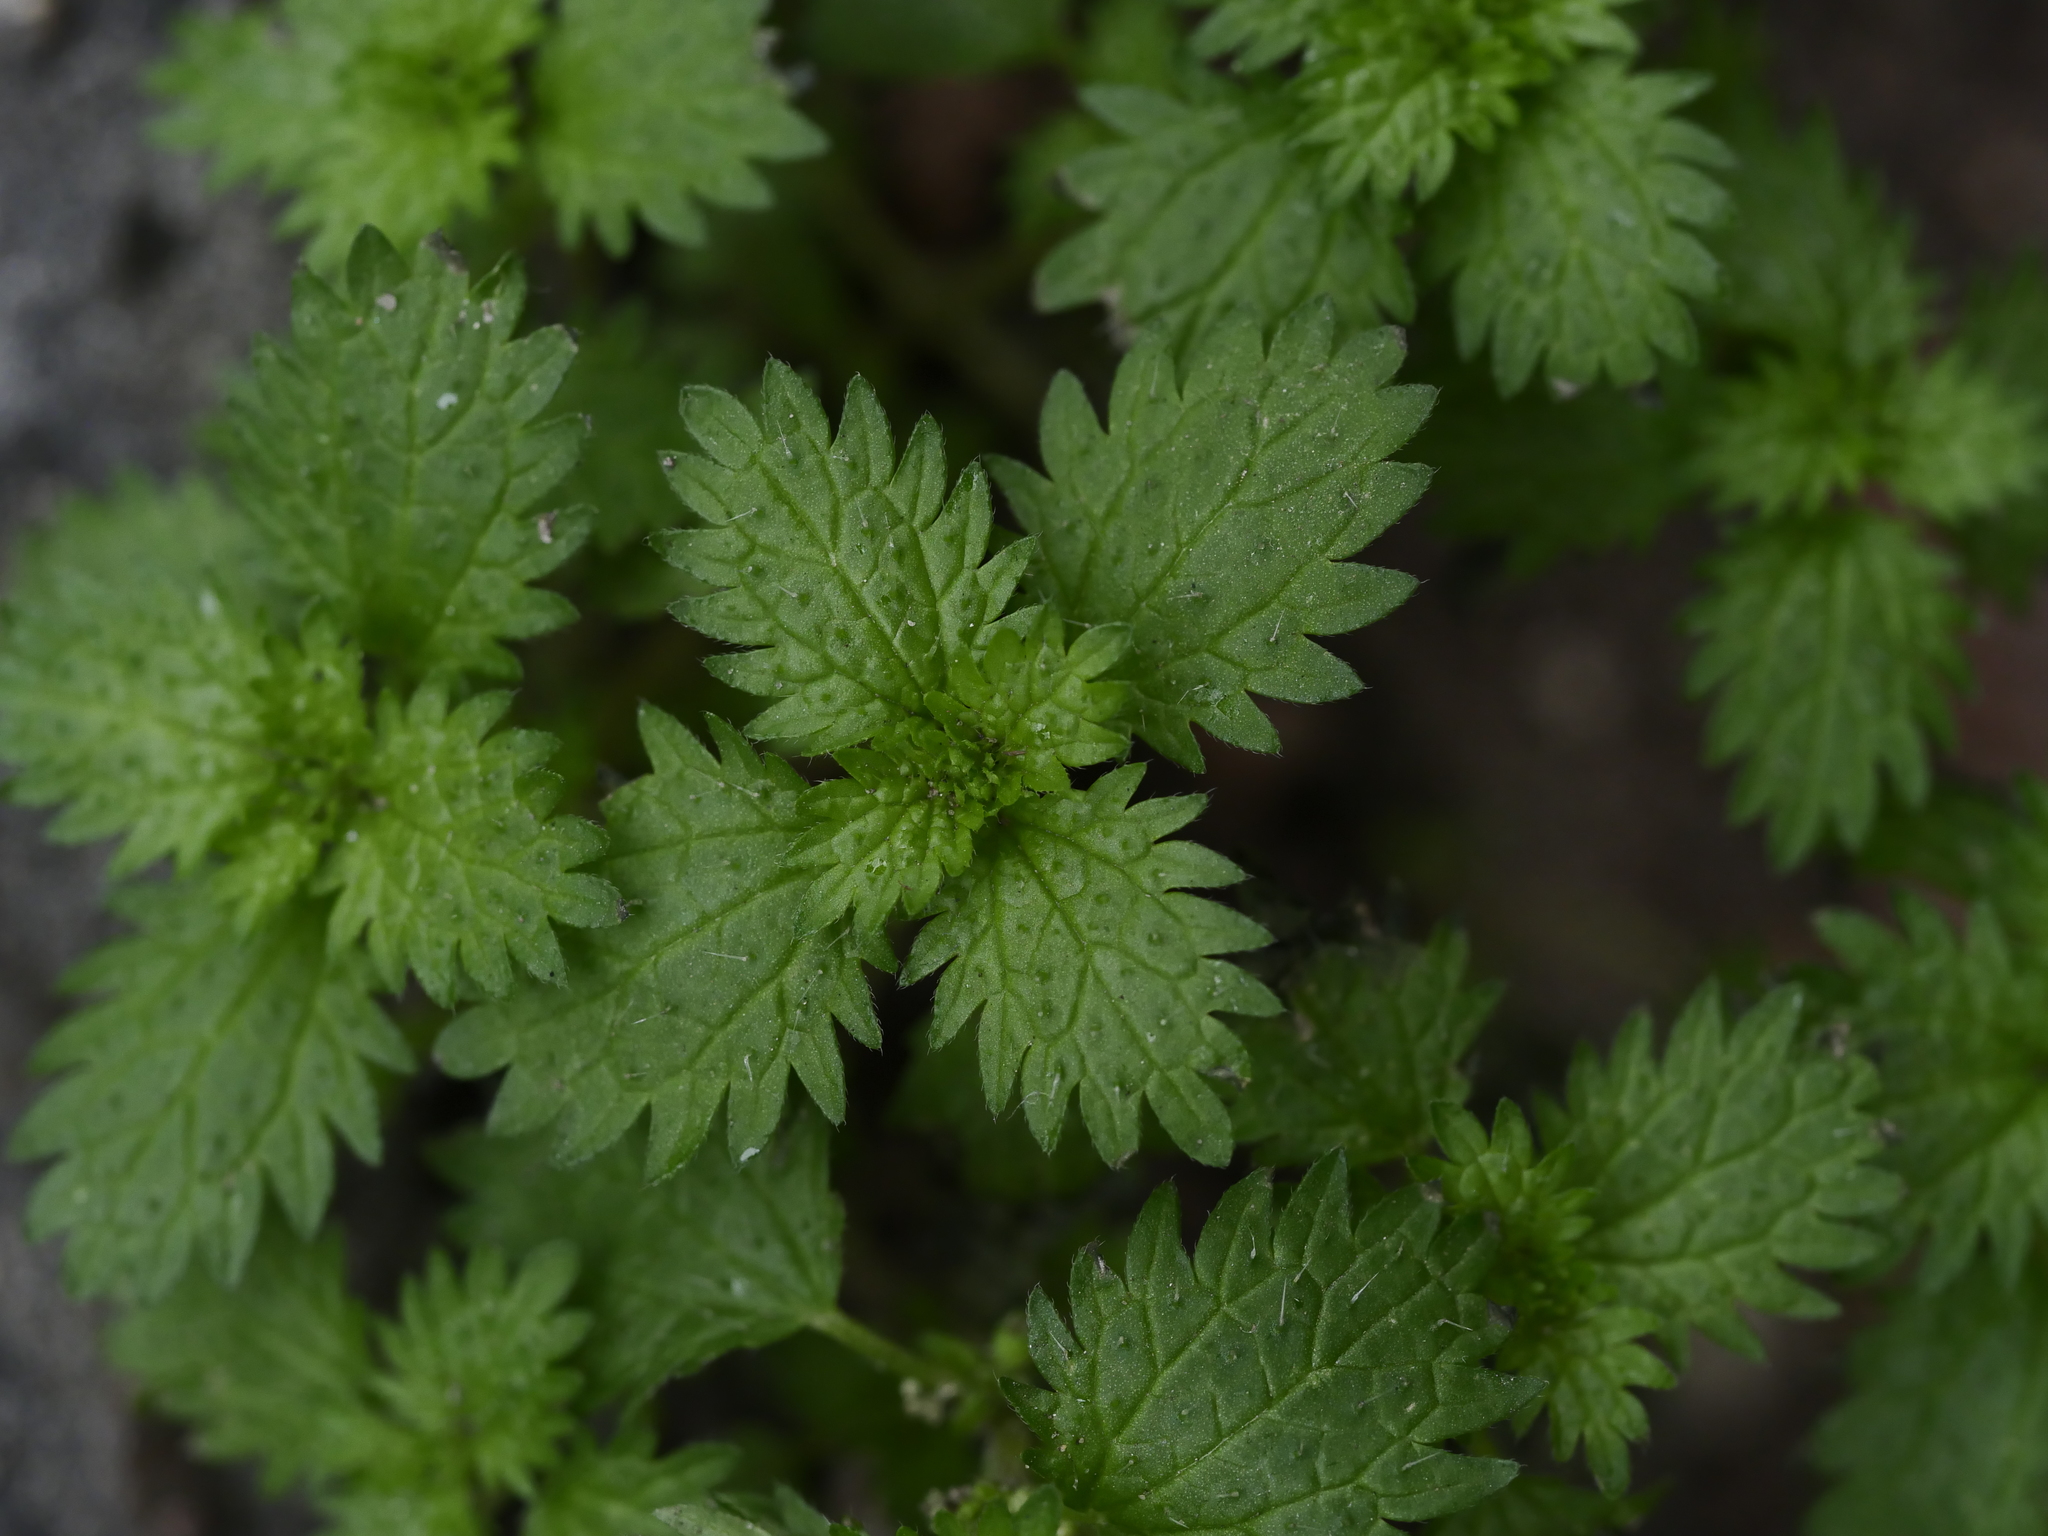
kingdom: Plantae
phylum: Tracheophyta
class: Magnoliopsida
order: Rosales
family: Urticaceae
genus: Urtica
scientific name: Urtica urens
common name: Dwarf nettle
